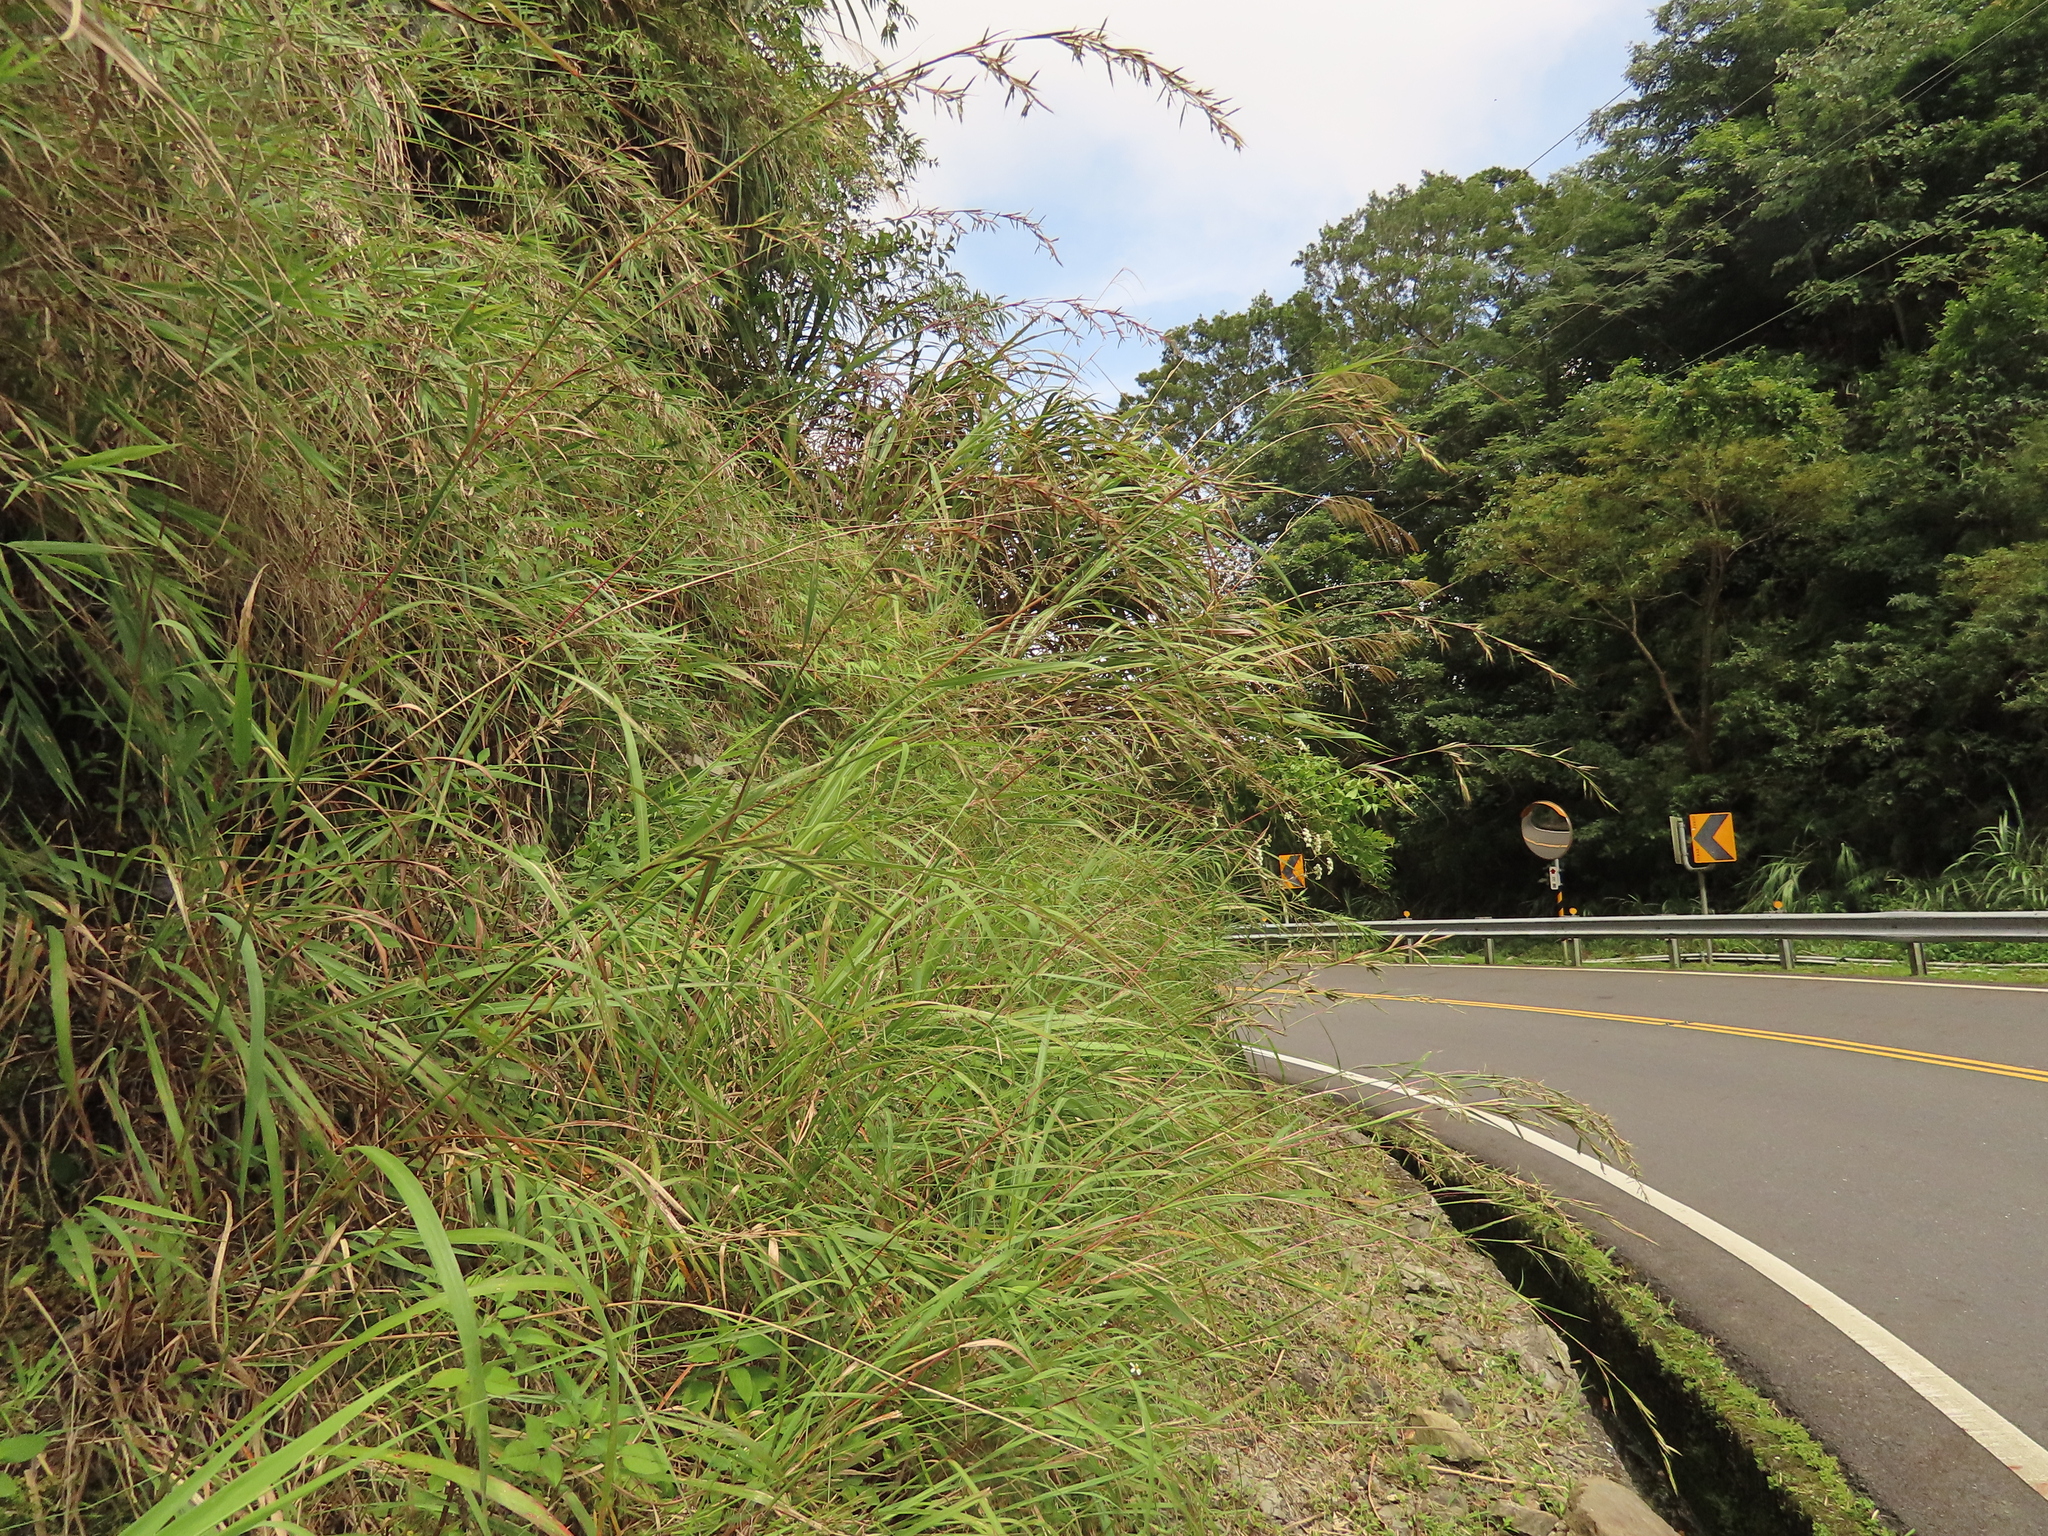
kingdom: Plantae
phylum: Tracheophyta
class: Liliopsida
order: Poales
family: Poaceae
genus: Cymbopogon
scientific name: Cymbopogon tortilis
